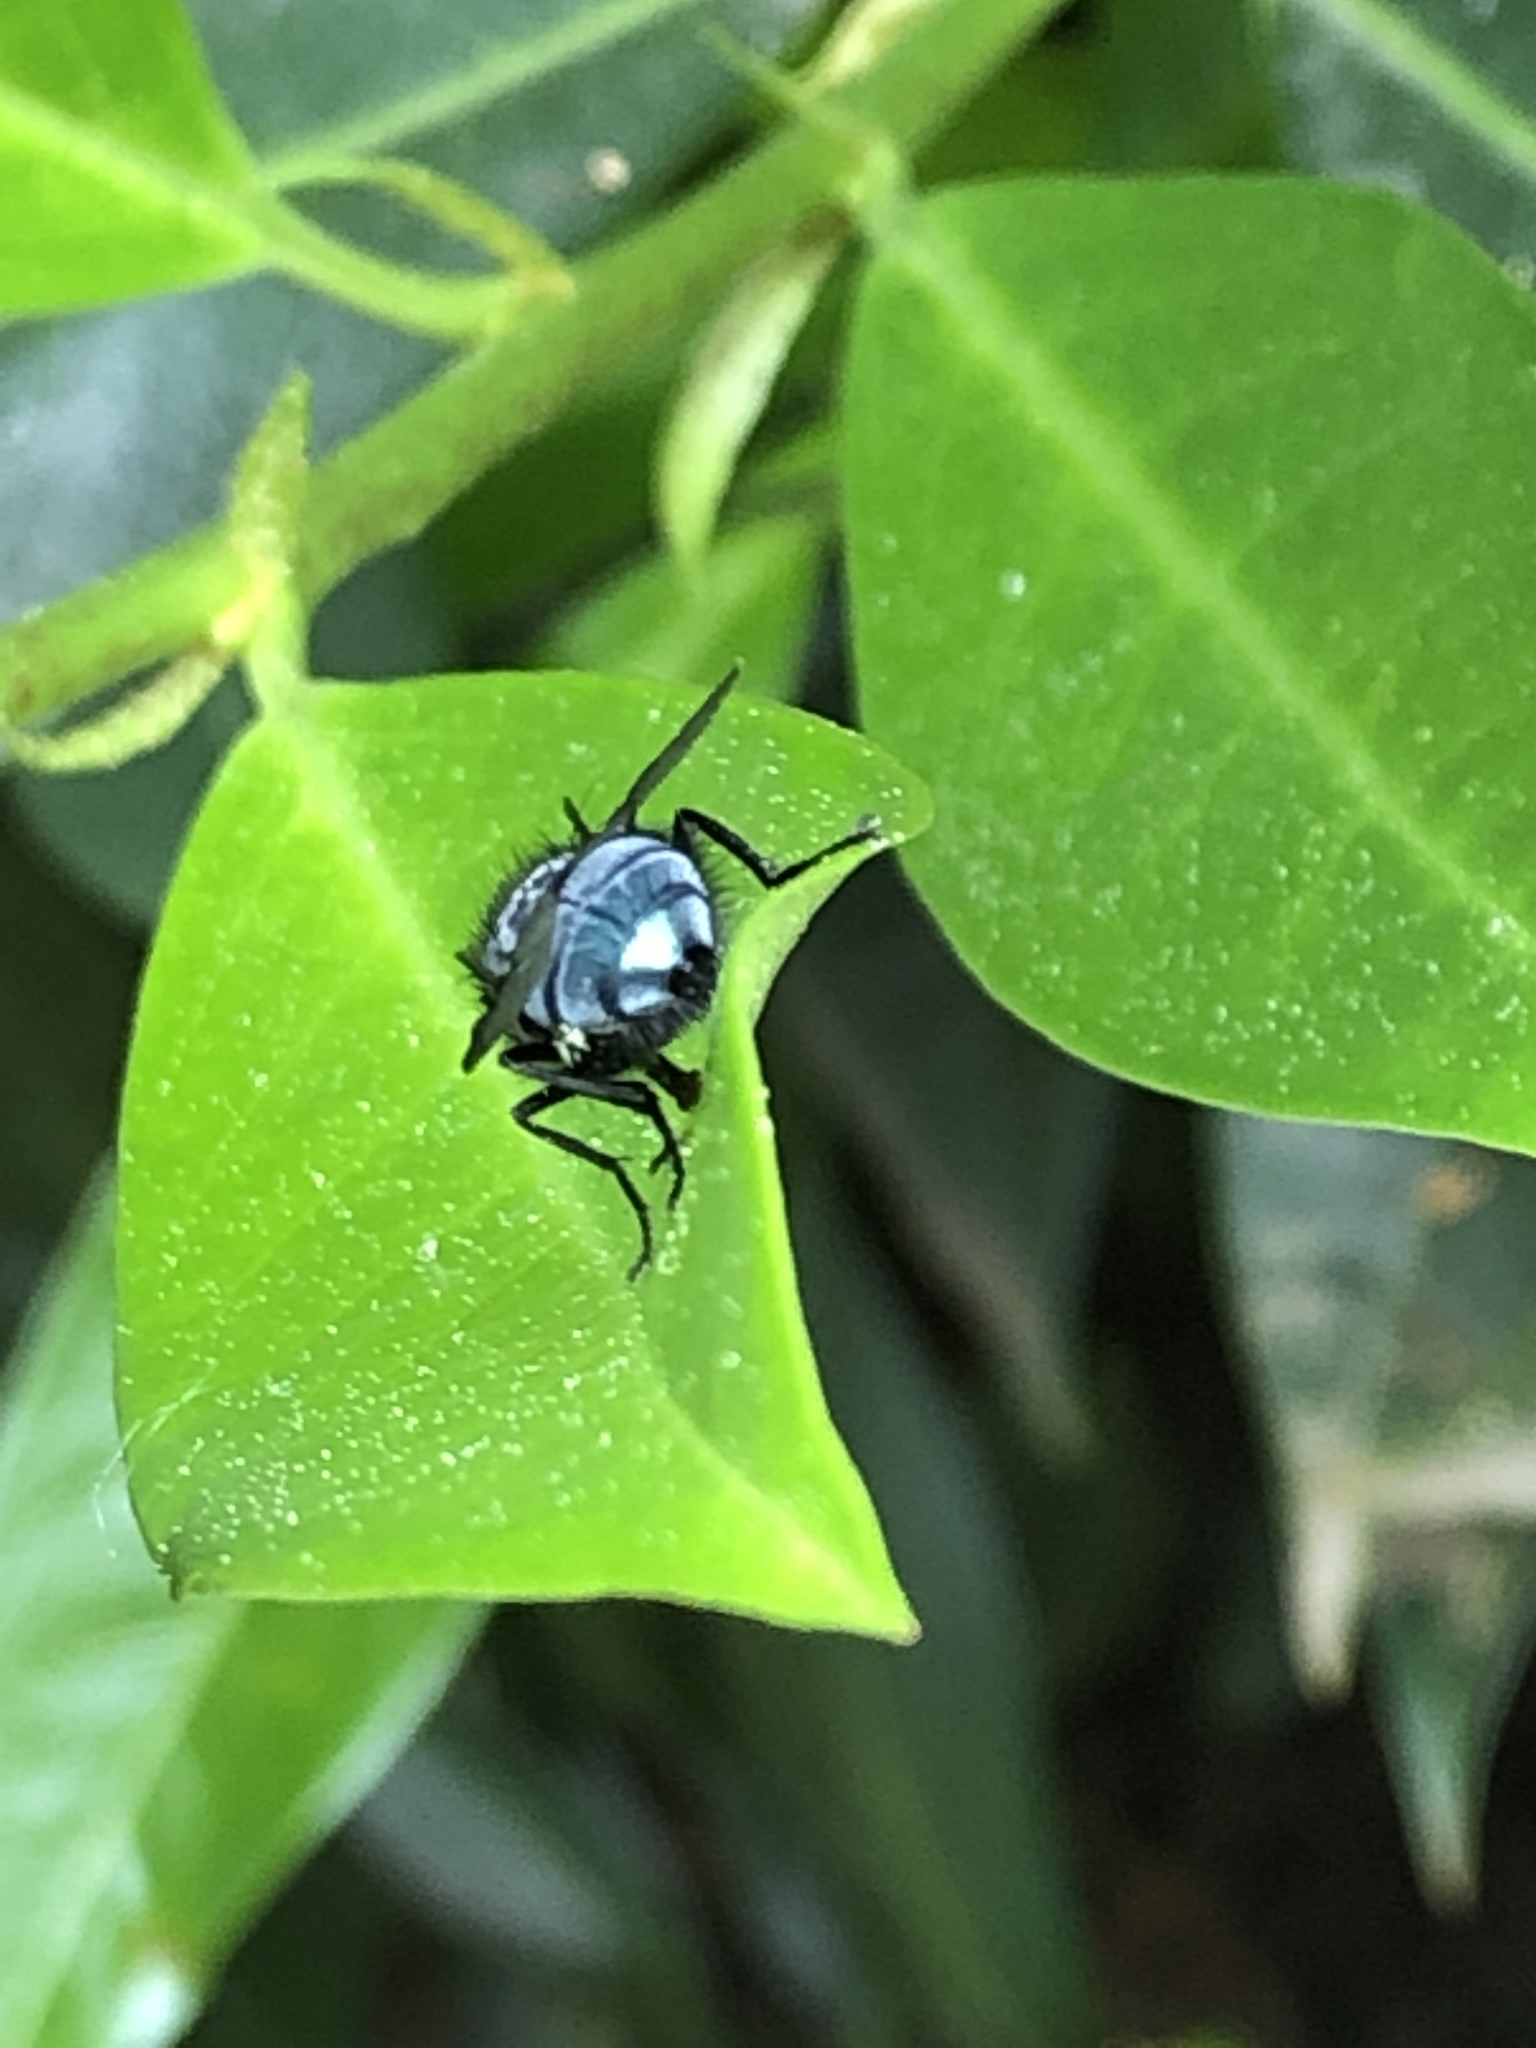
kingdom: Animalia
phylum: Arthropoda
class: Insecta
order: Diptera
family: Calliphoridae
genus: Calliphora
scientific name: Calliphora vicina
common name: Common blow flie
